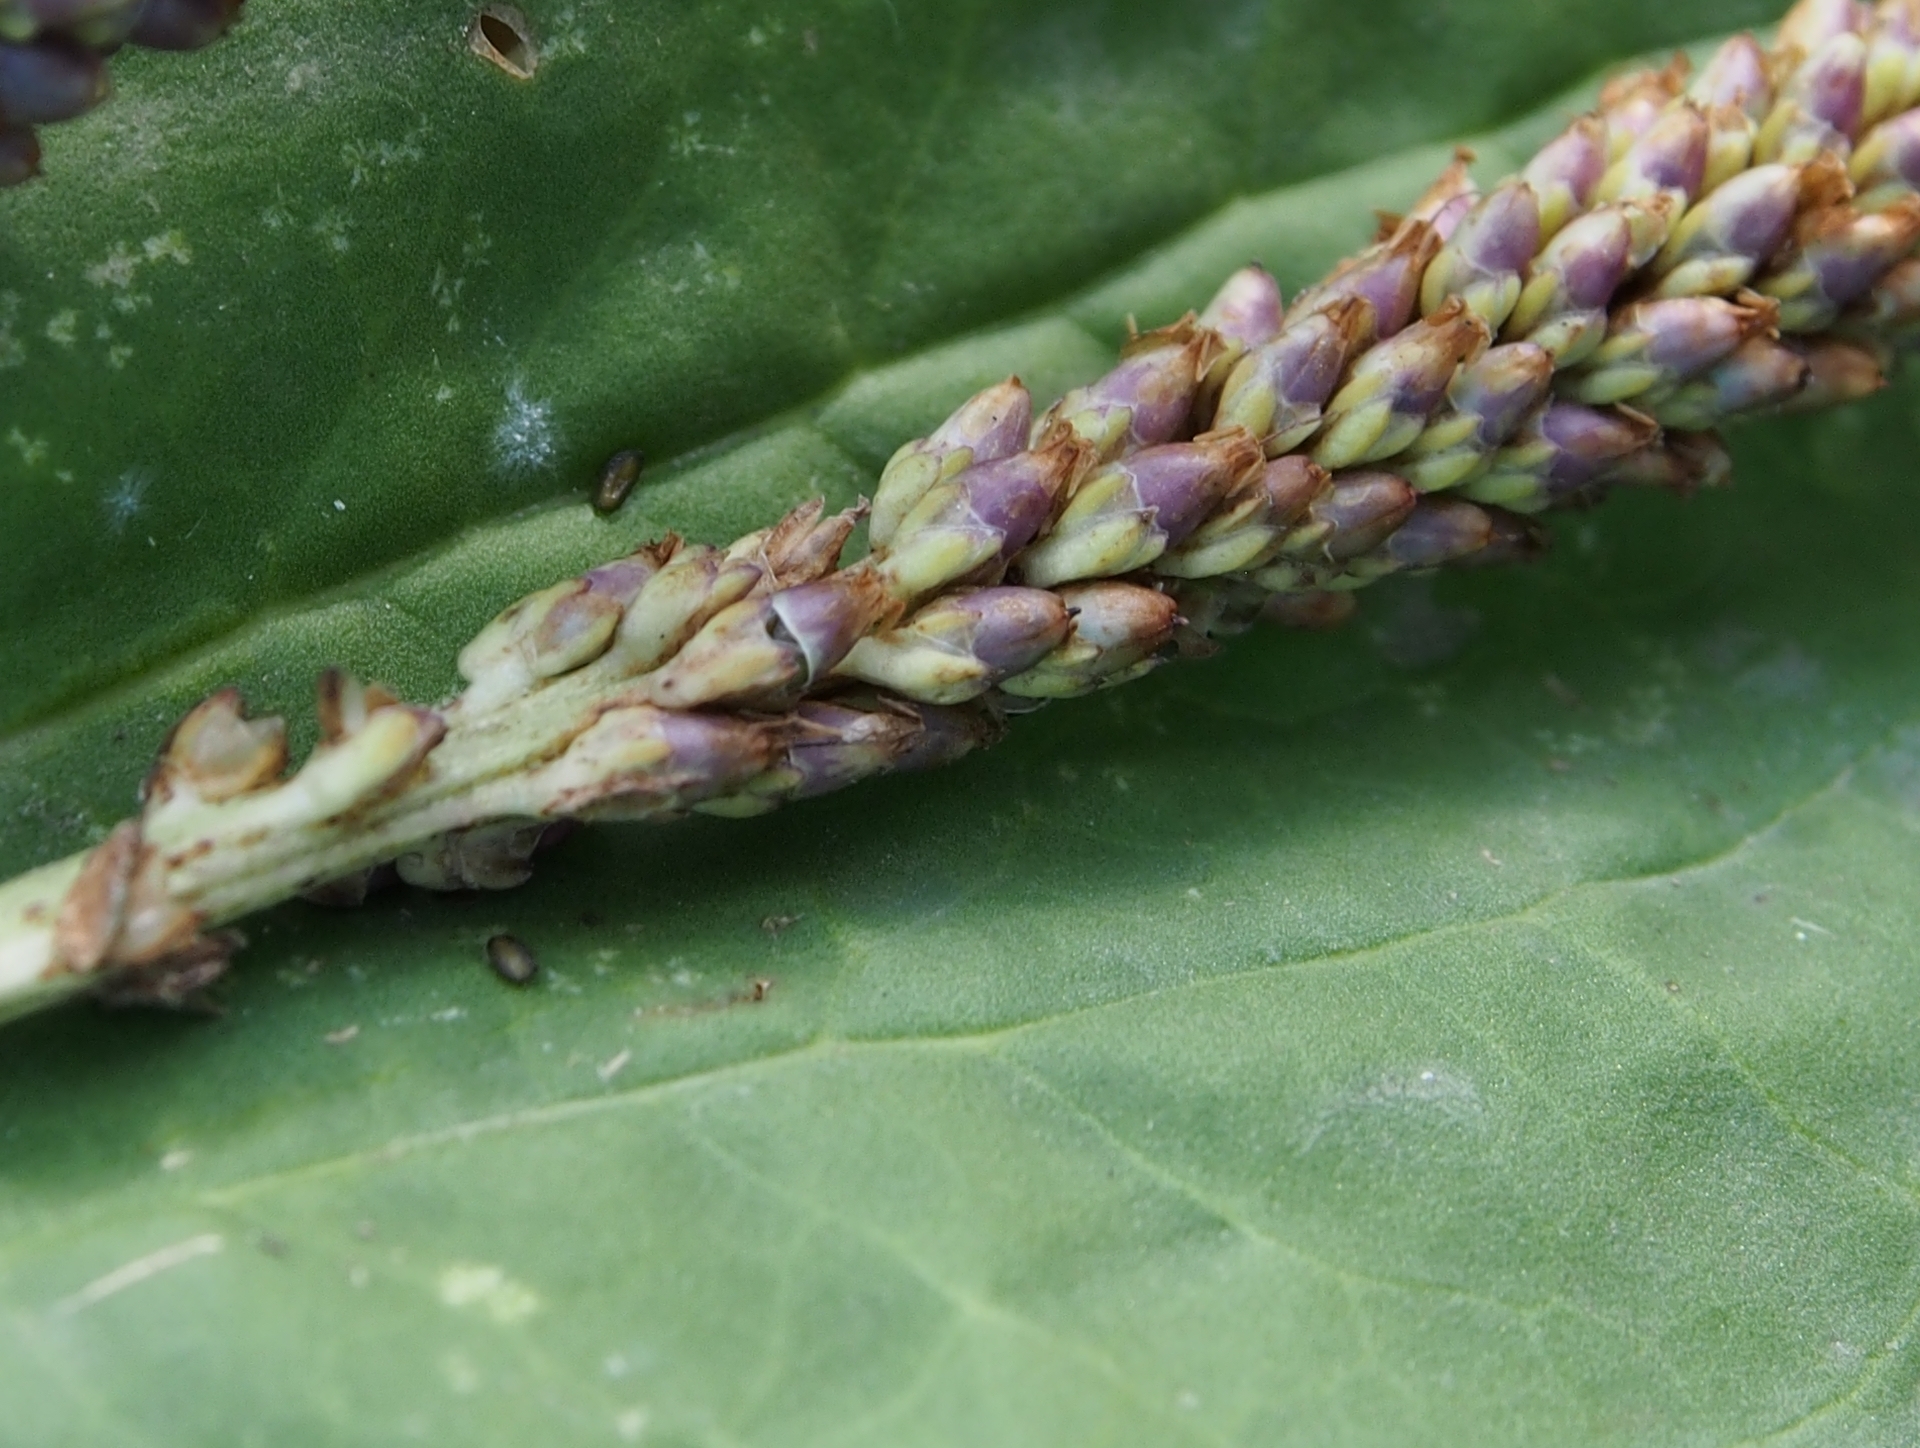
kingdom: Plantae
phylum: Tracheophyta
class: Magnoliopsida
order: Lamiales
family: Plantaginaceae
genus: Plantago
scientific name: Plantago major
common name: Common plantain
